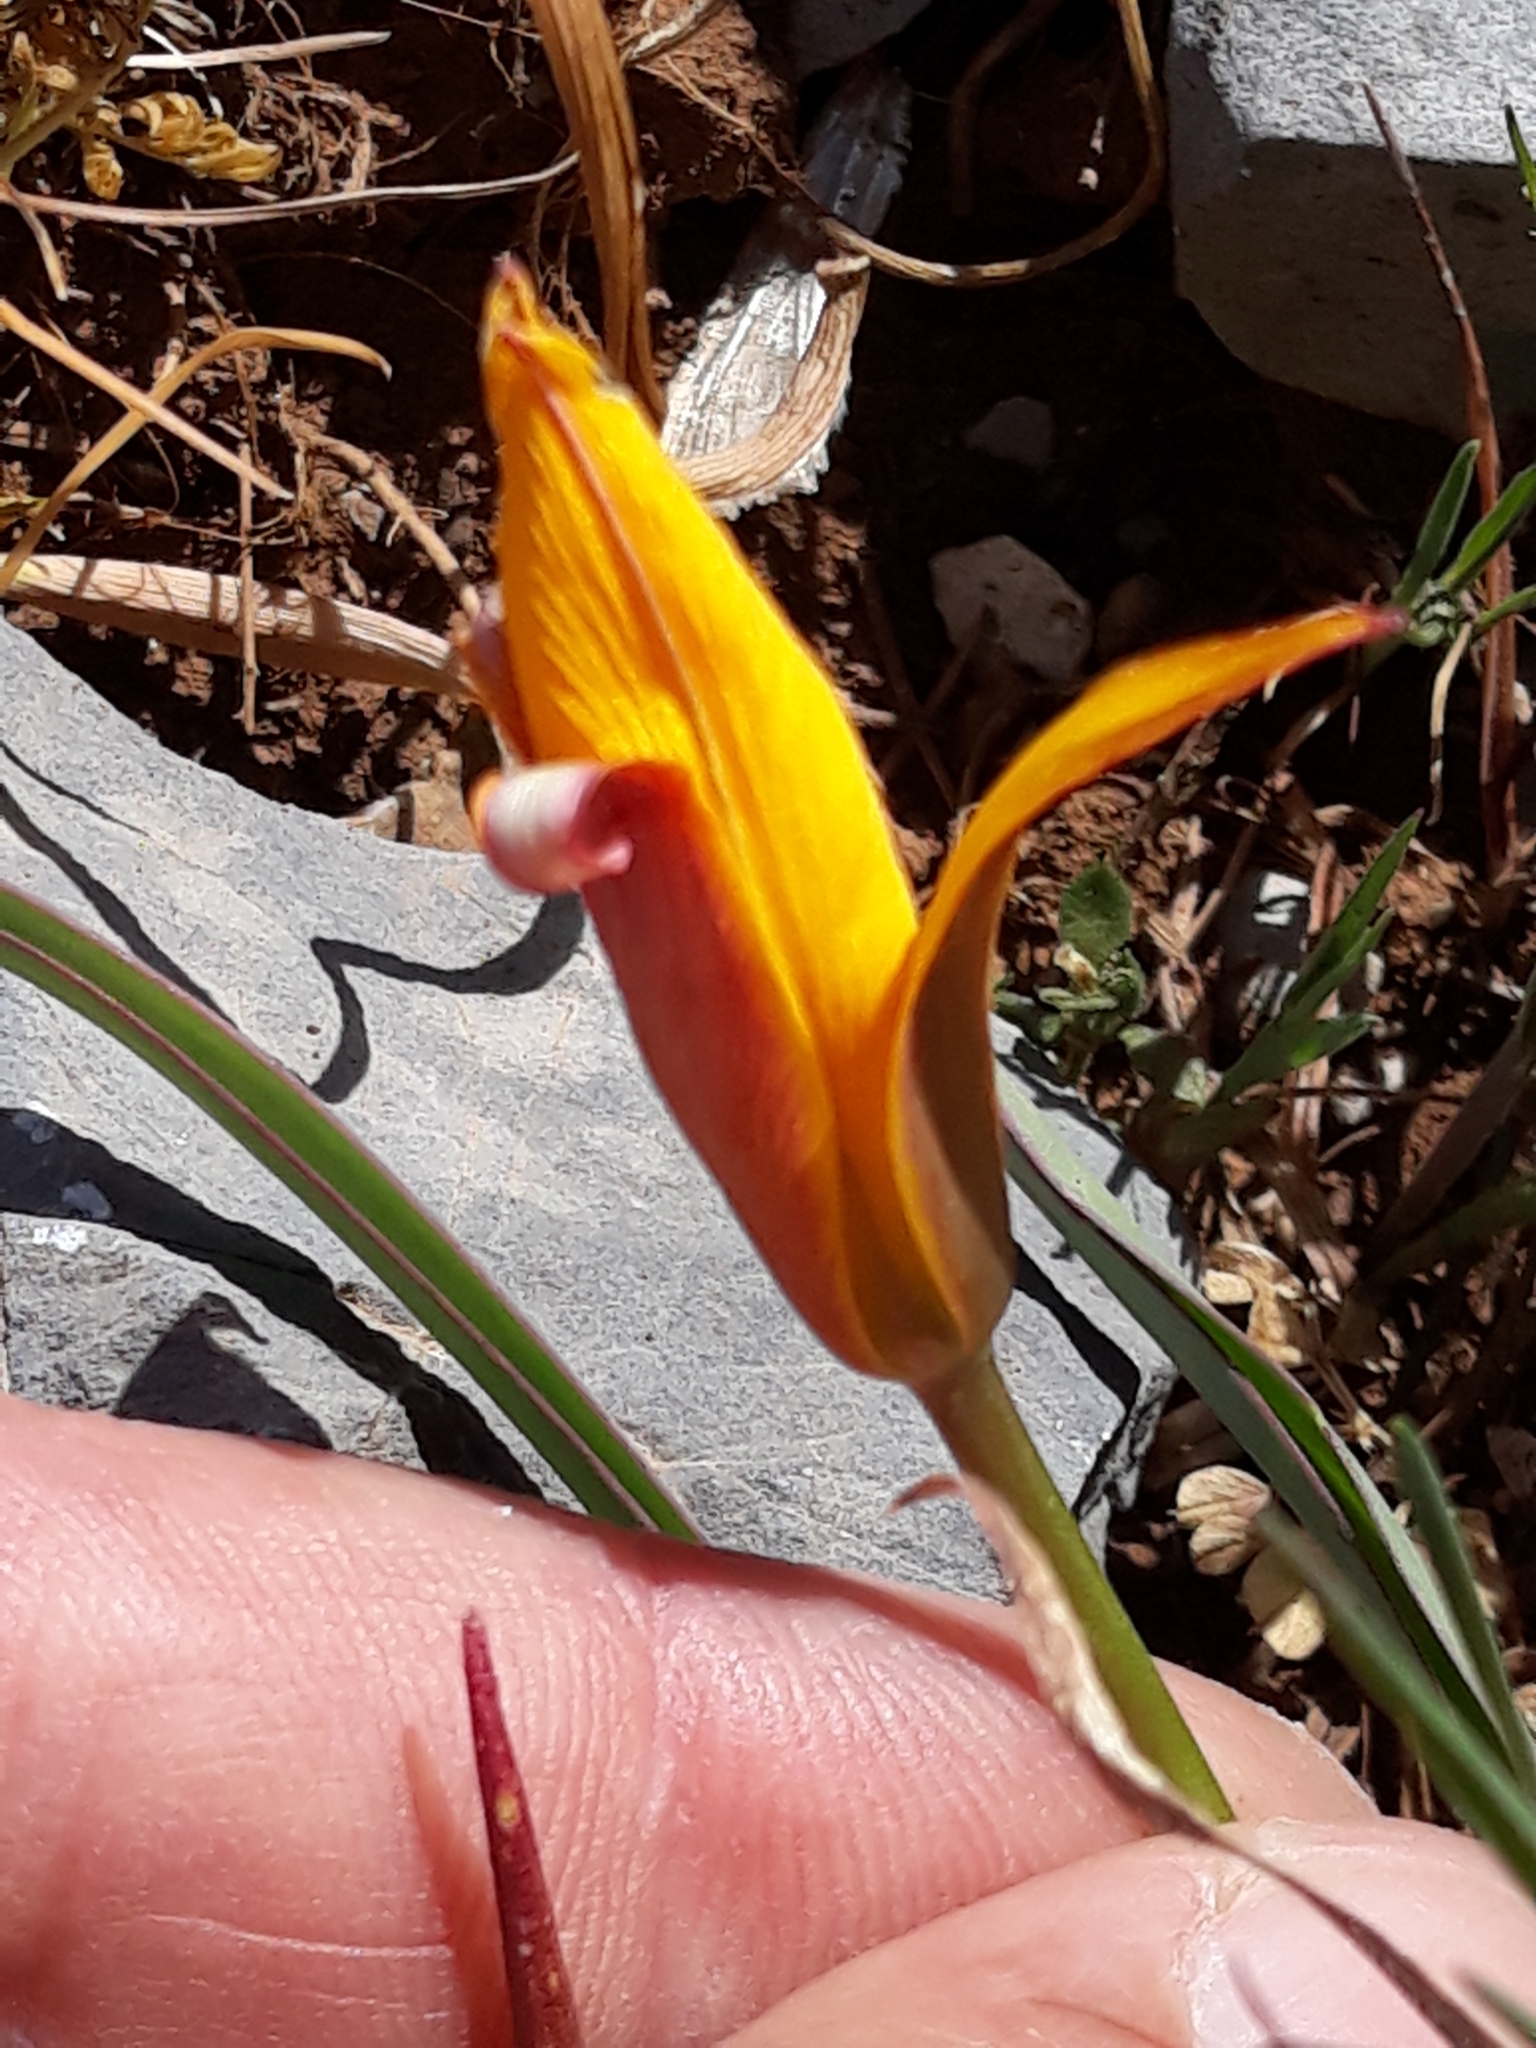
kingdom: Plantae
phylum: Tracheophyta
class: Liliopsida
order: Liliales
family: Liliaceae
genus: Tulipa
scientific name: Tulipa sylvestris
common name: Wild tulip
